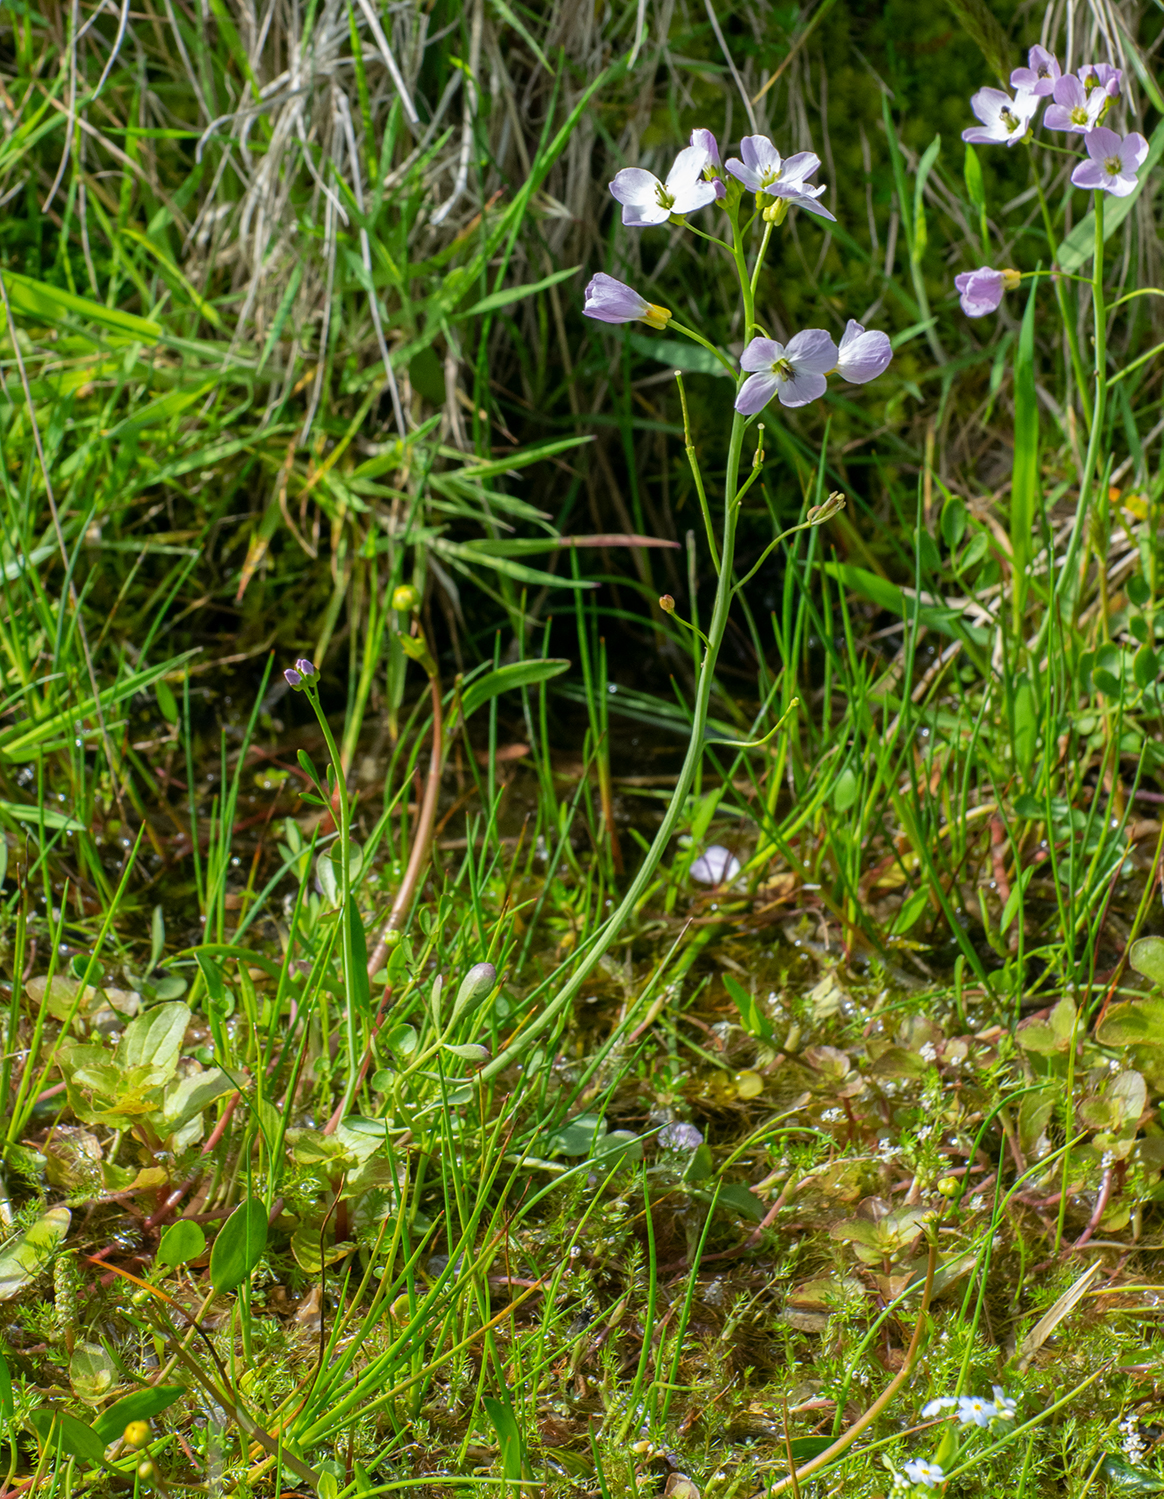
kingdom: Plantae
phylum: Tracheophyta
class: Magnoliopsida
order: Brassicales
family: Brassicaceae
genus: Cardamine
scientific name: Cardamine pratensis
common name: Cuckoo flower
